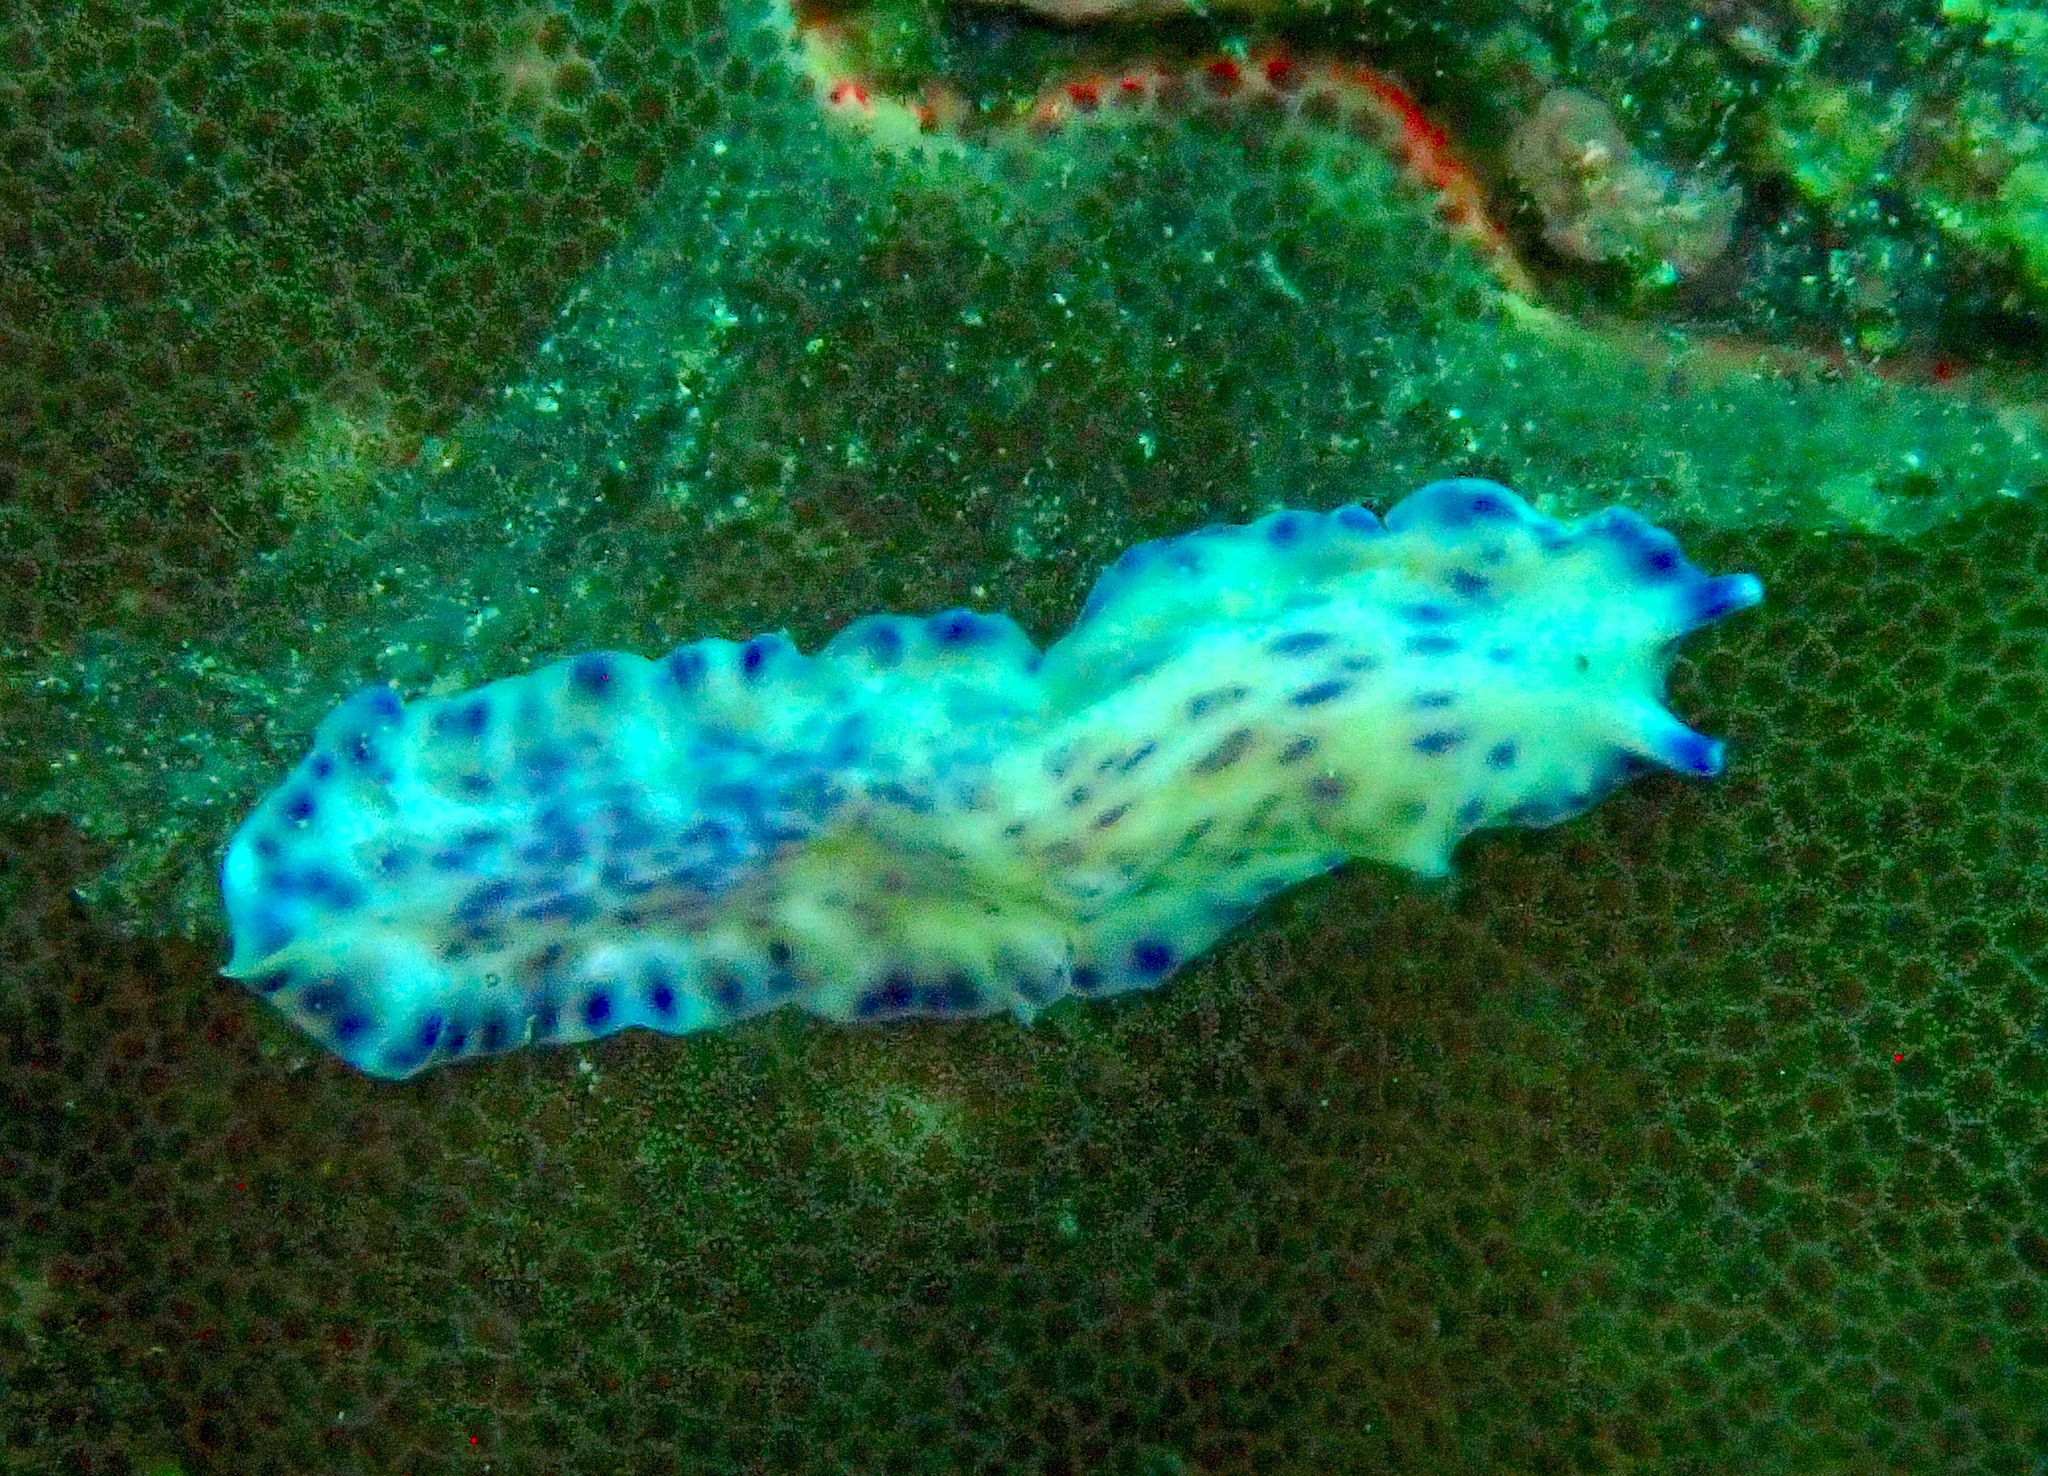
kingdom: Animalia
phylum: Platyhelminthes
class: Turbellaria
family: Pseudocerotidae
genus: Pseudoceros
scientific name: Pseudoceros laingensis
